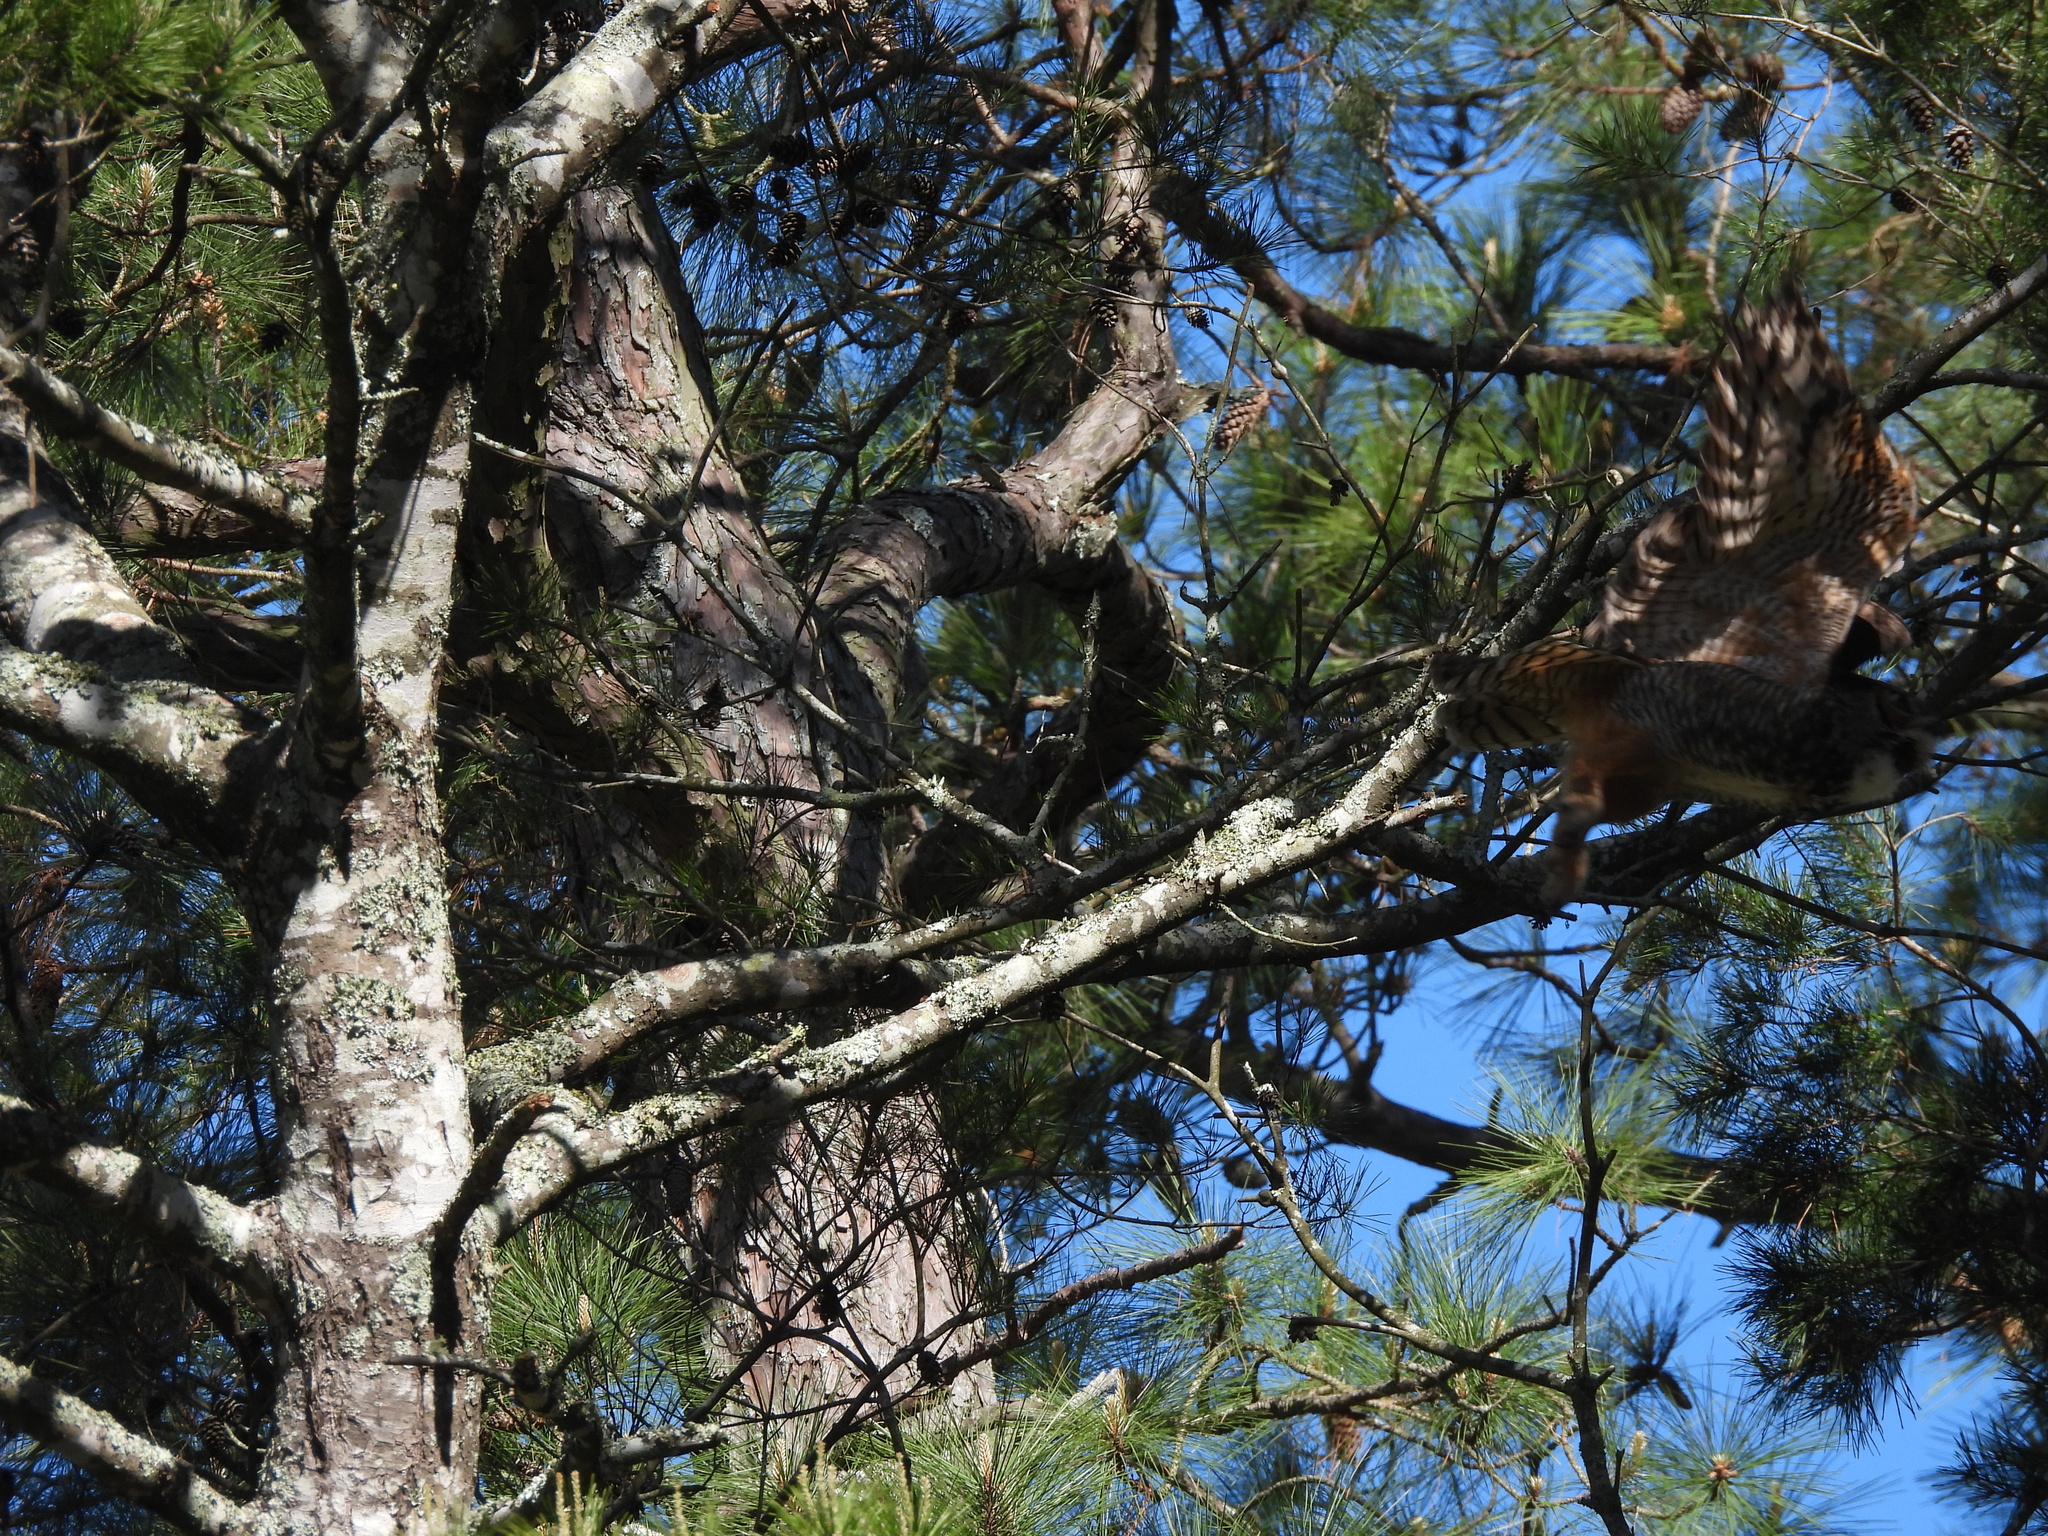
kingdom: Animalia
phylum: Chordata
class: Aves
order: Strigiformes
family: Strigidae
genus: Bubo
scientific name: Bubo virginianus
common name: Great horned owl
